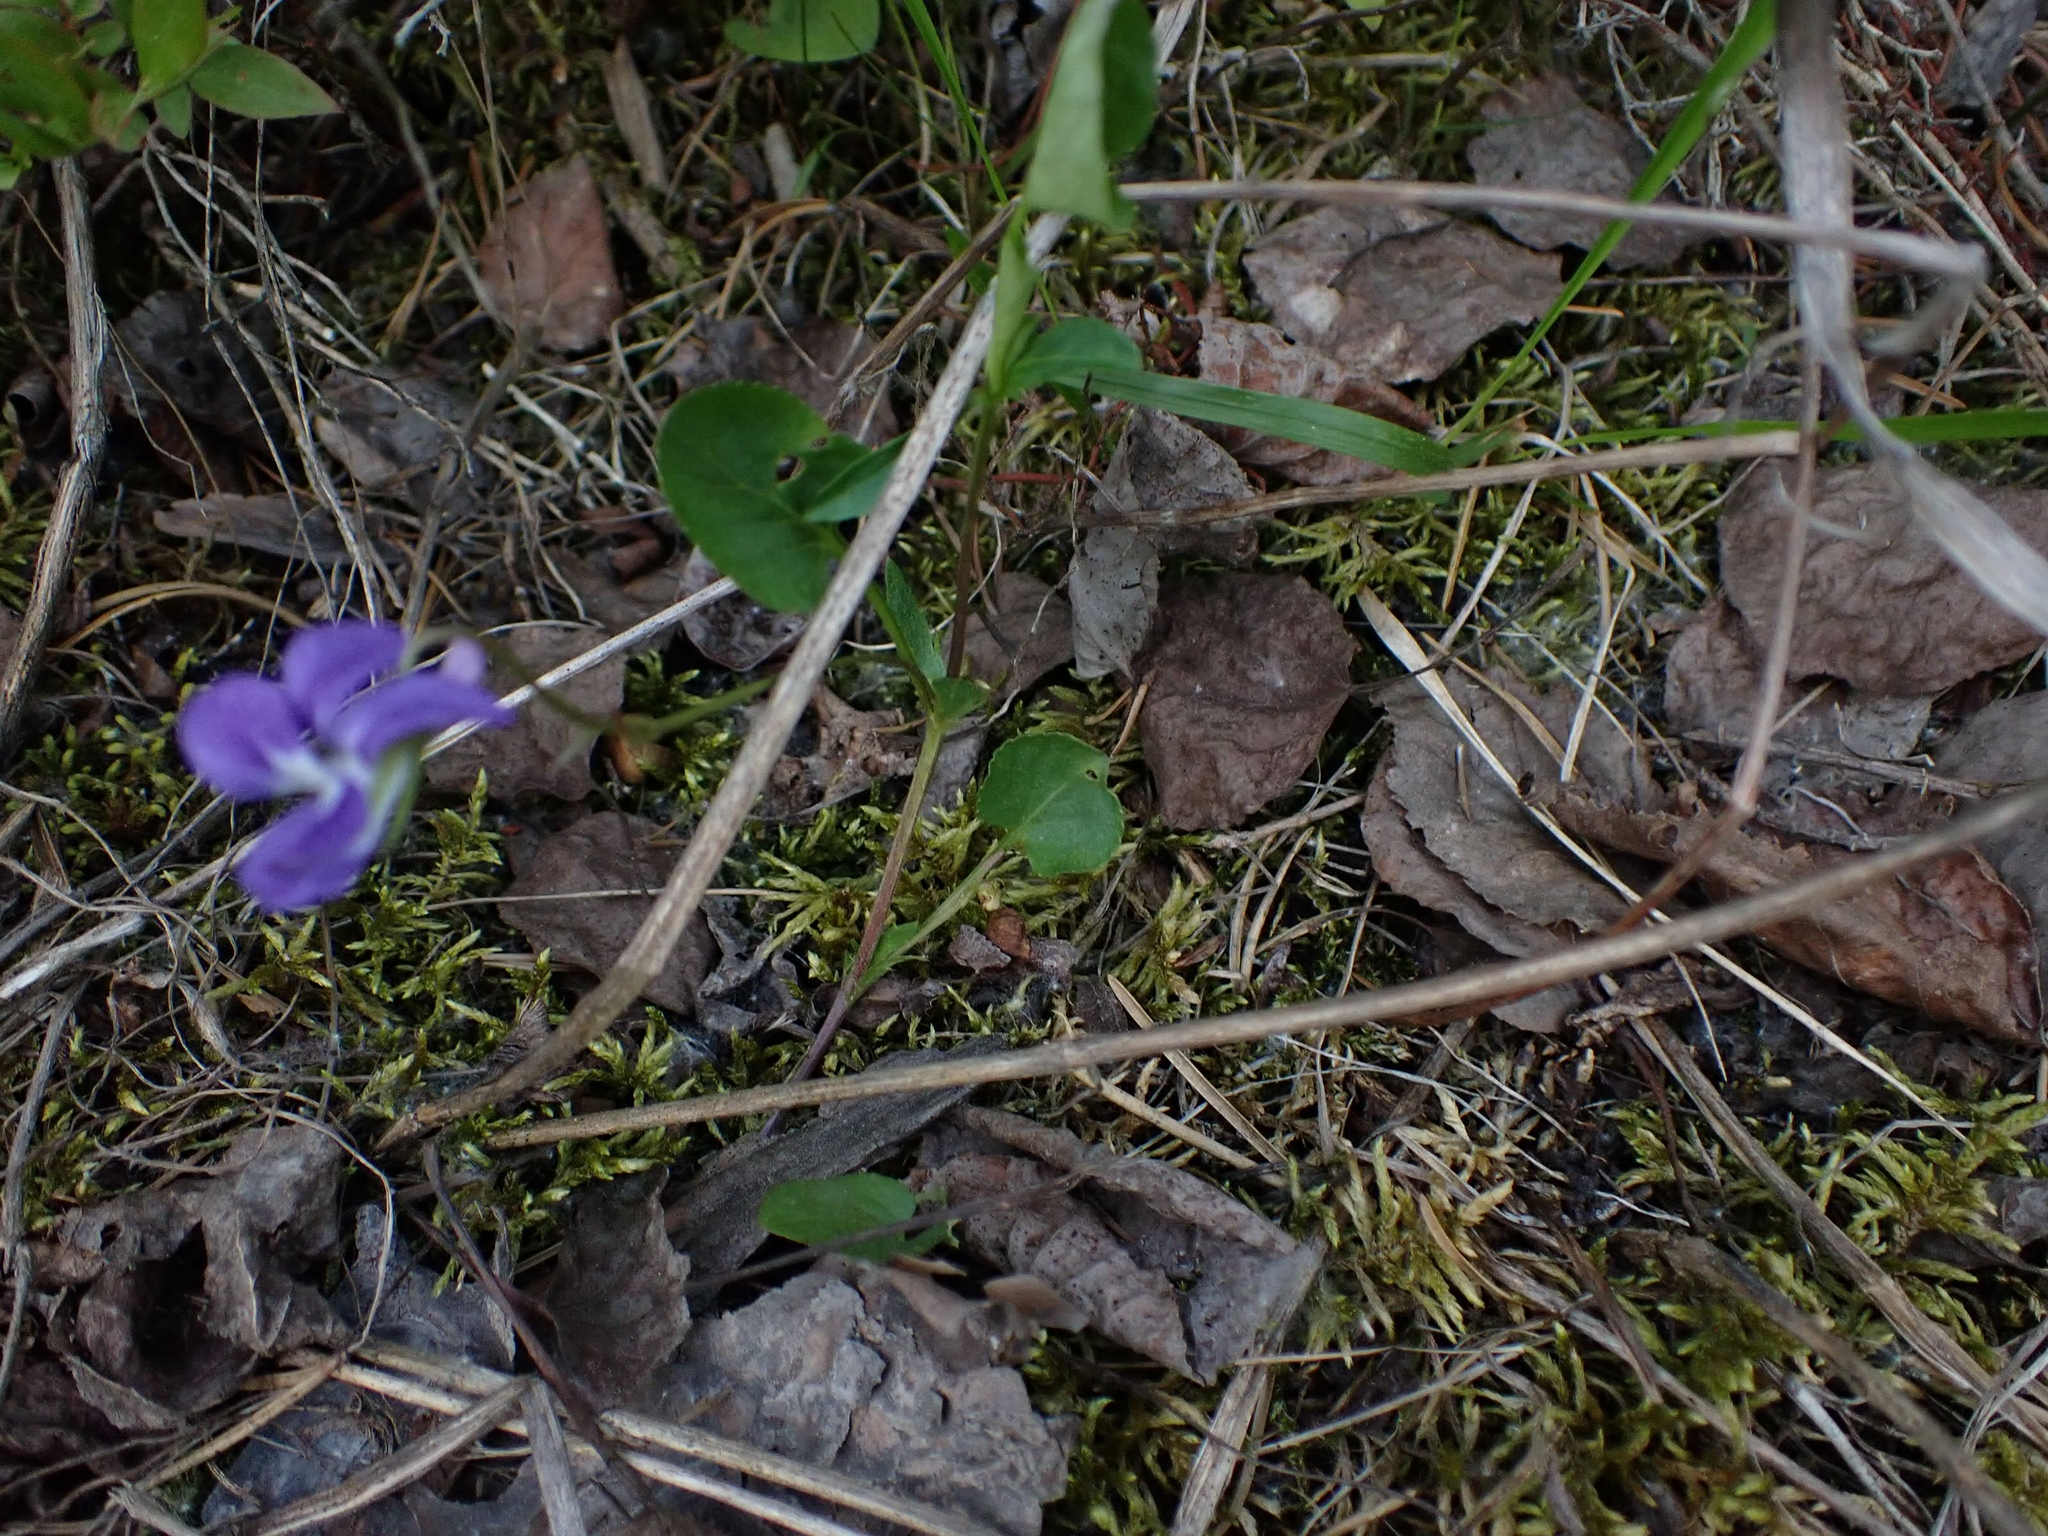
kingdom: Plantae
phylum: Tracheophyta
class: Magnoliopsida
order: Malpighiales
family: Violaceae
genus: Viola
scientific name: Viola adunca
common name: Sand violet
